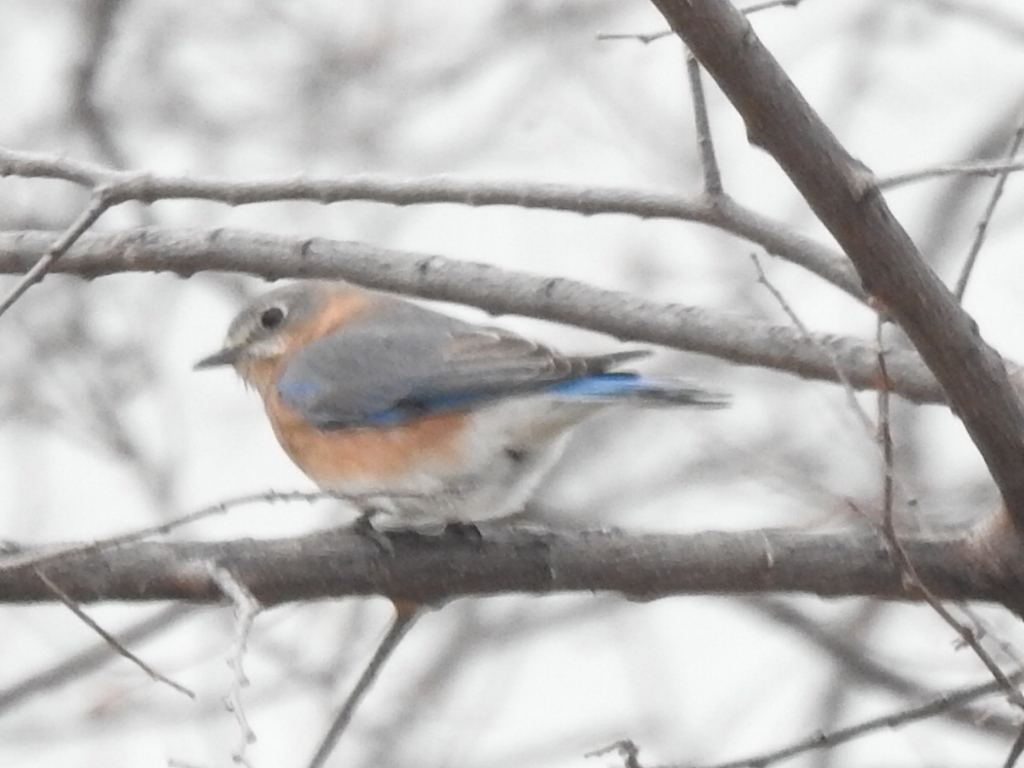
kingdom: Animalia
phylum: Chordata
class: Aves
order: Passeriformes
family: Turdidae
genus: Sialia
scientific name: Sialia sialis
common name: Eastern bluebird
